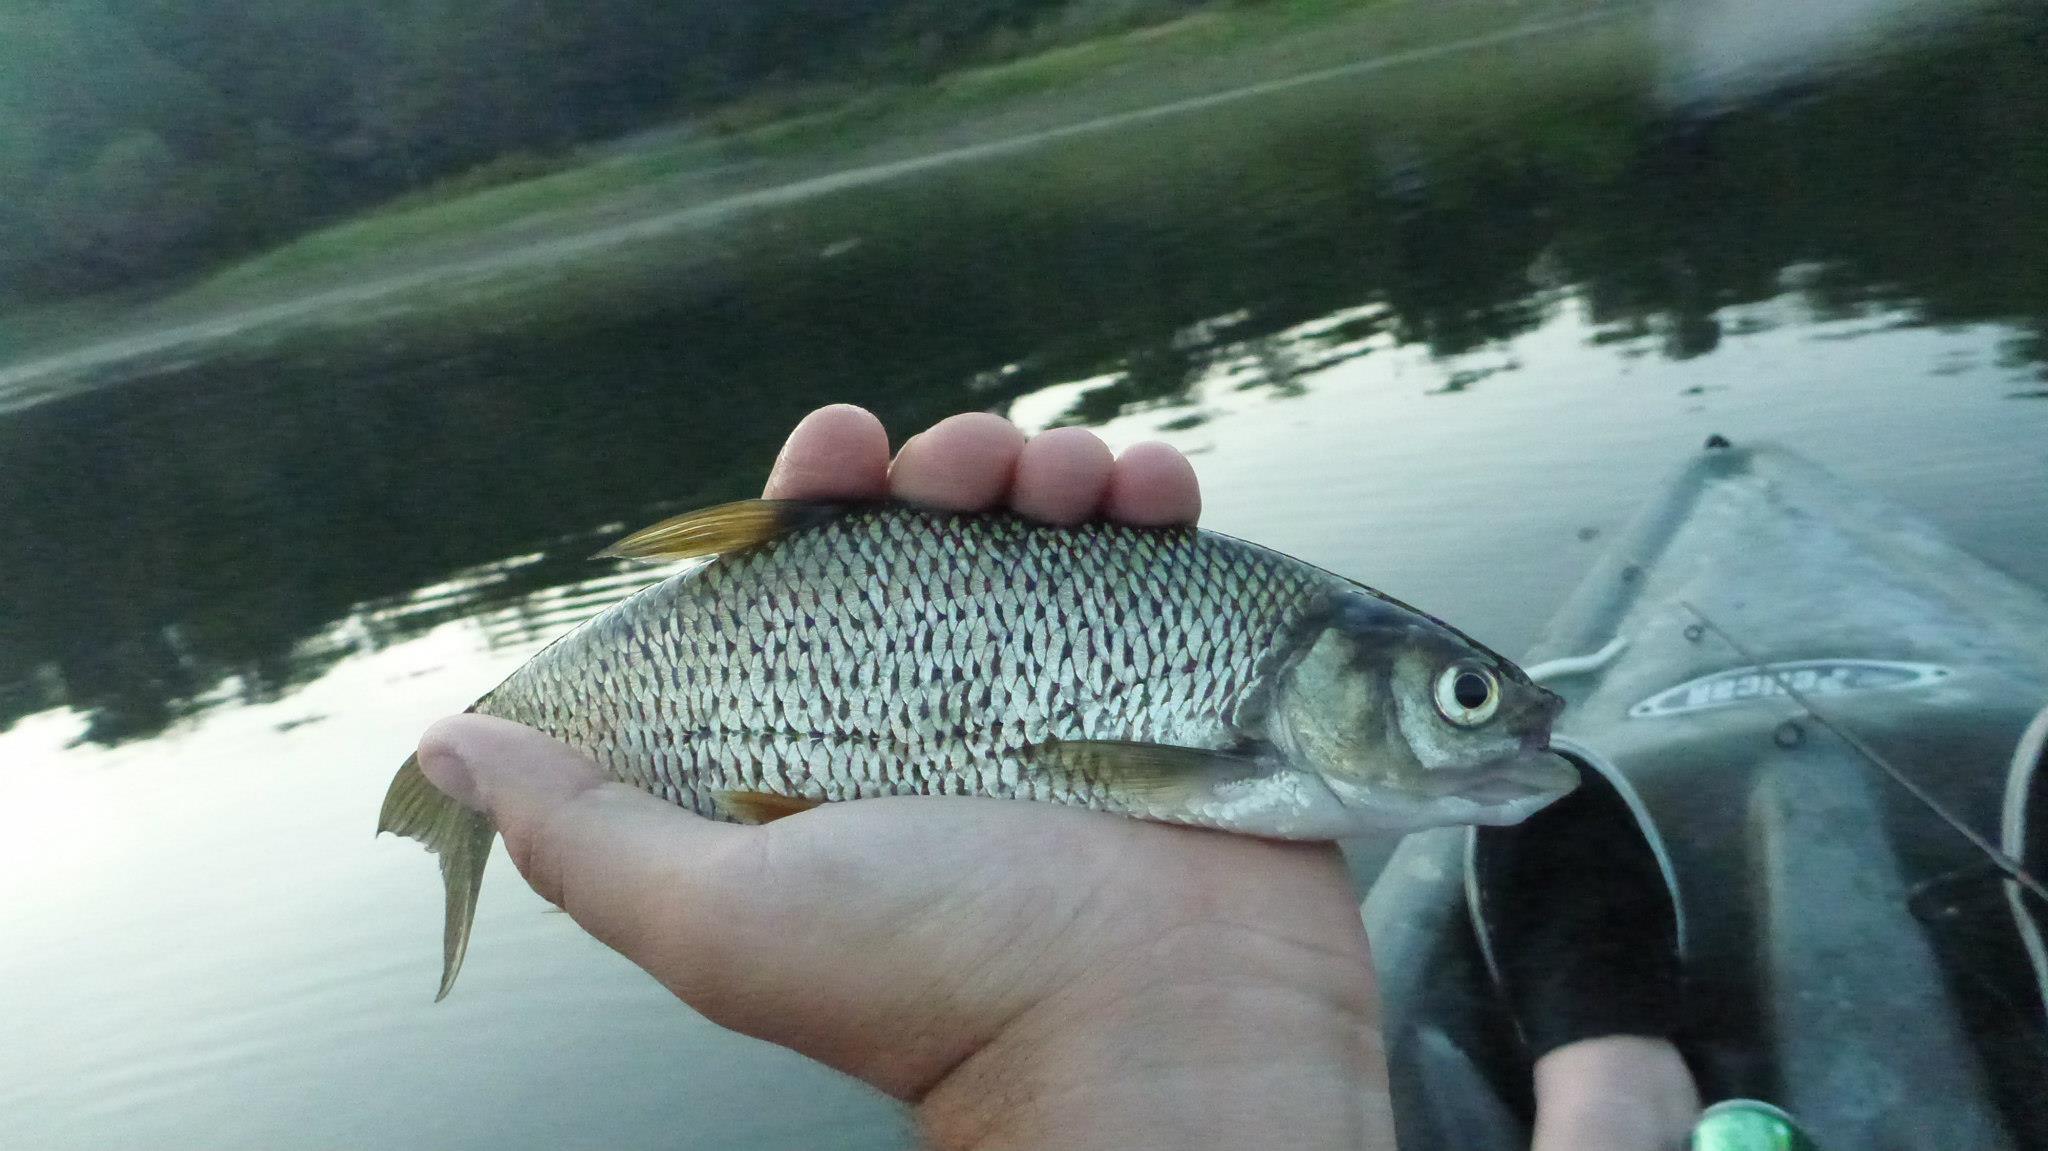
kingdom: Animalia
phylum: Chordata
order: Cypriniformes
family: Cyprinidae
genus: Notemigonus
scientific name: Notemigonus crysoleucas
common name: Golden shiner
